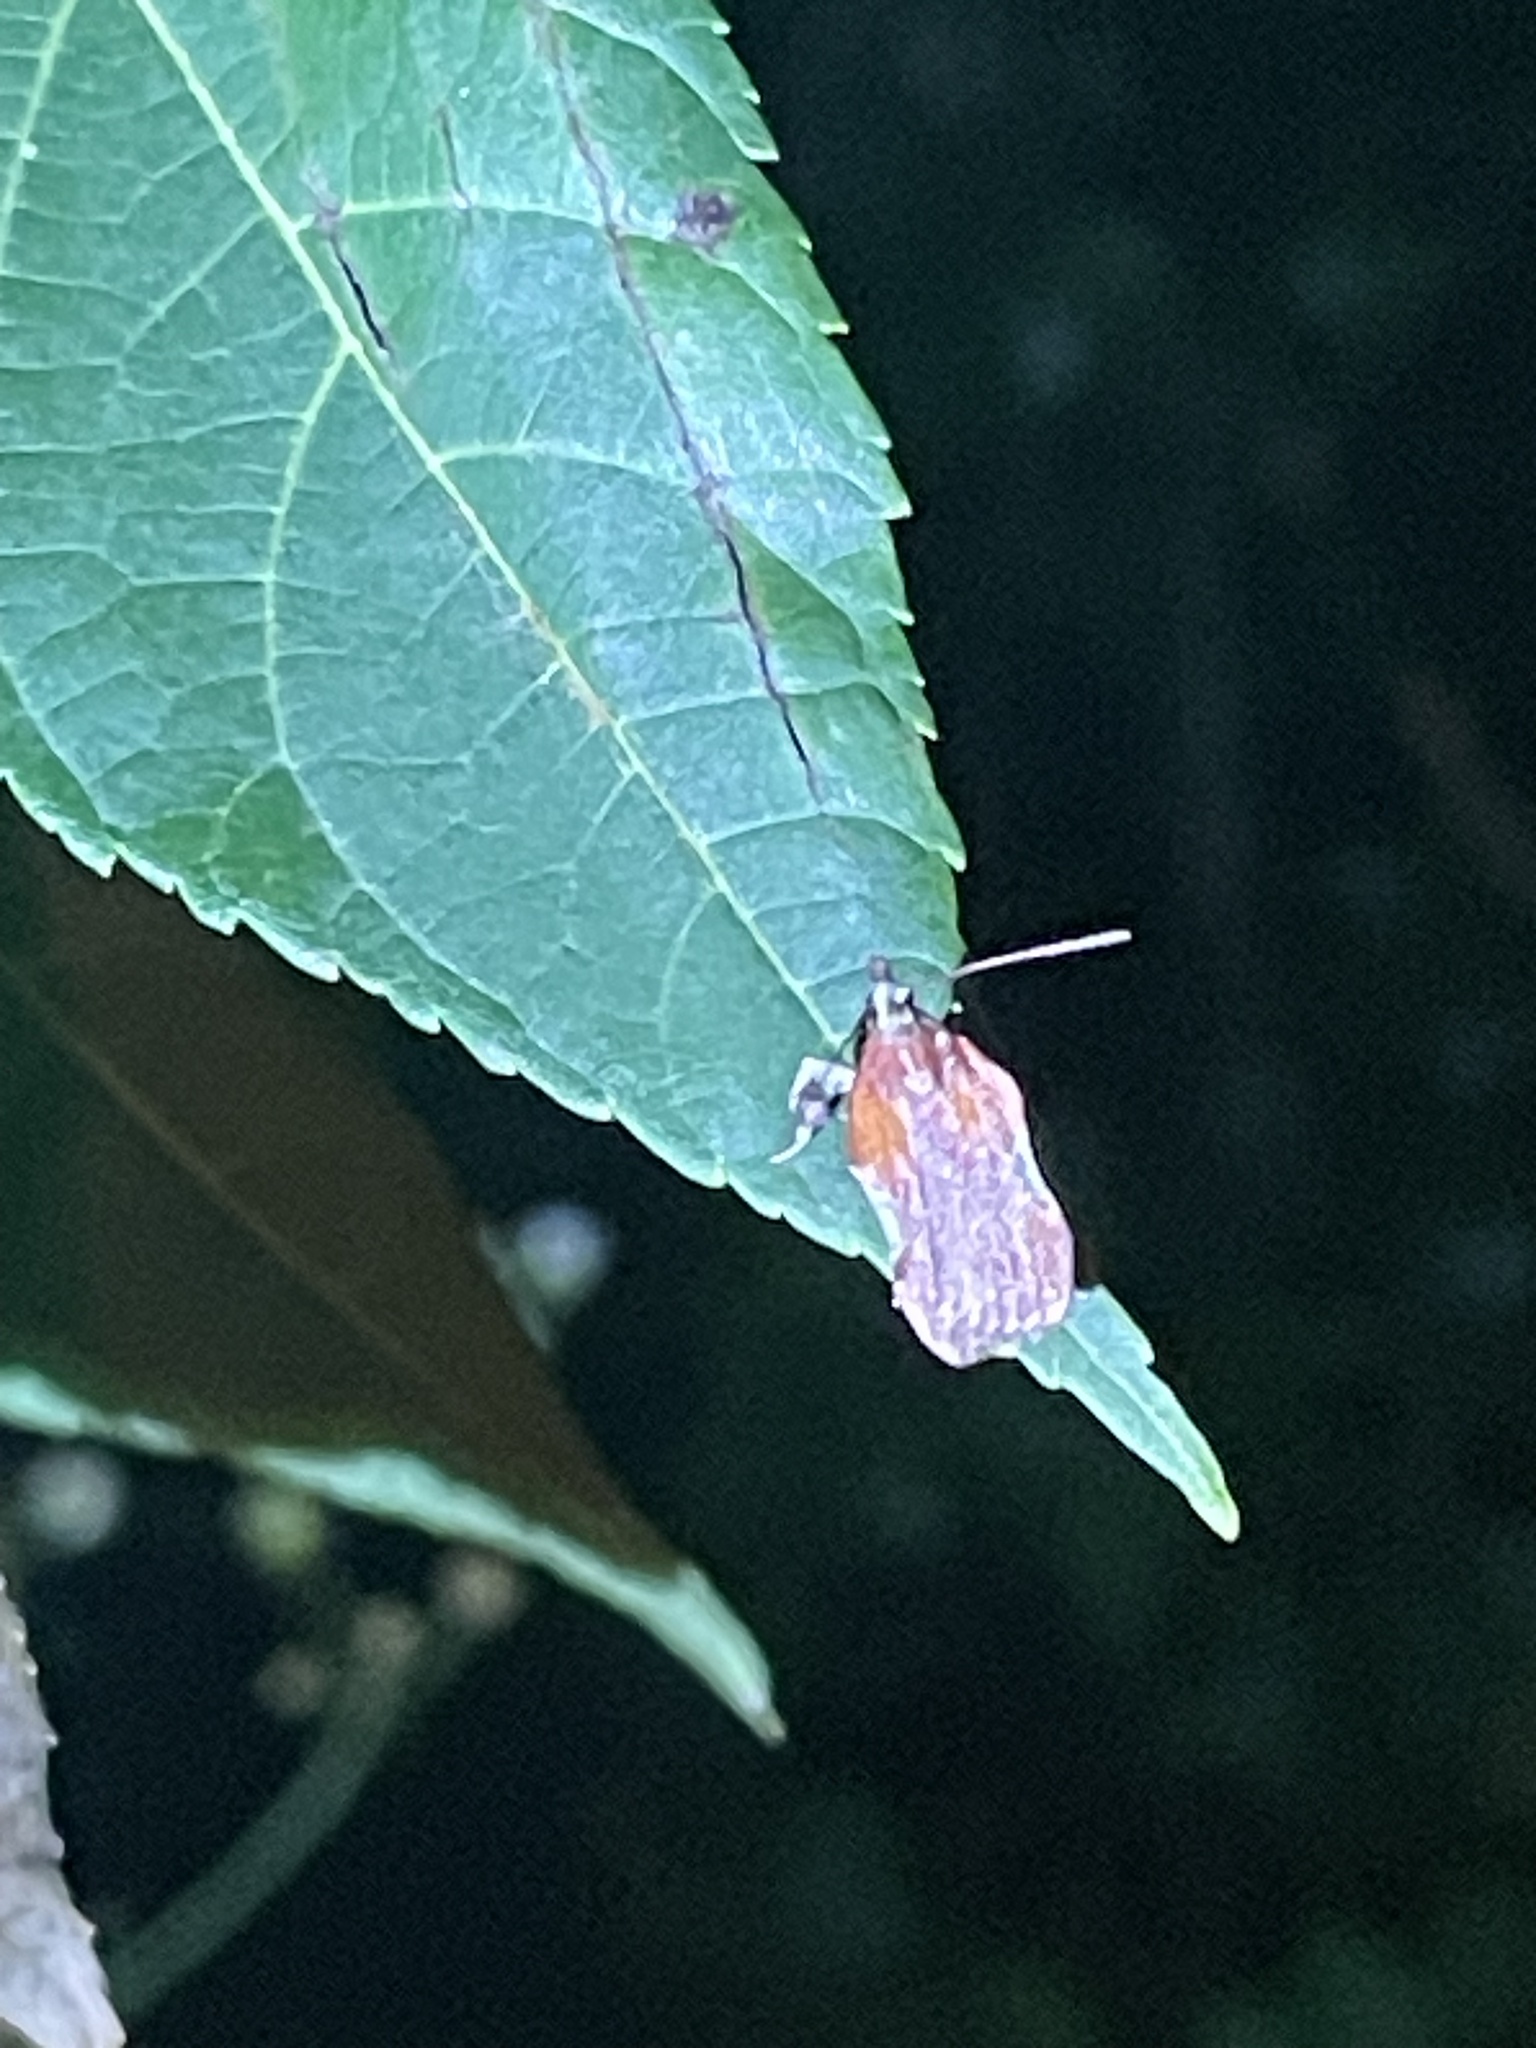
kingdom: Animalia
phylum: Arthropoda
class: Insecta
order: Lepidoptera
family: Pyralidae
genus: Galasa
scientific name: Galasa nigrinodis
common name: Boxwood leaftier moth
